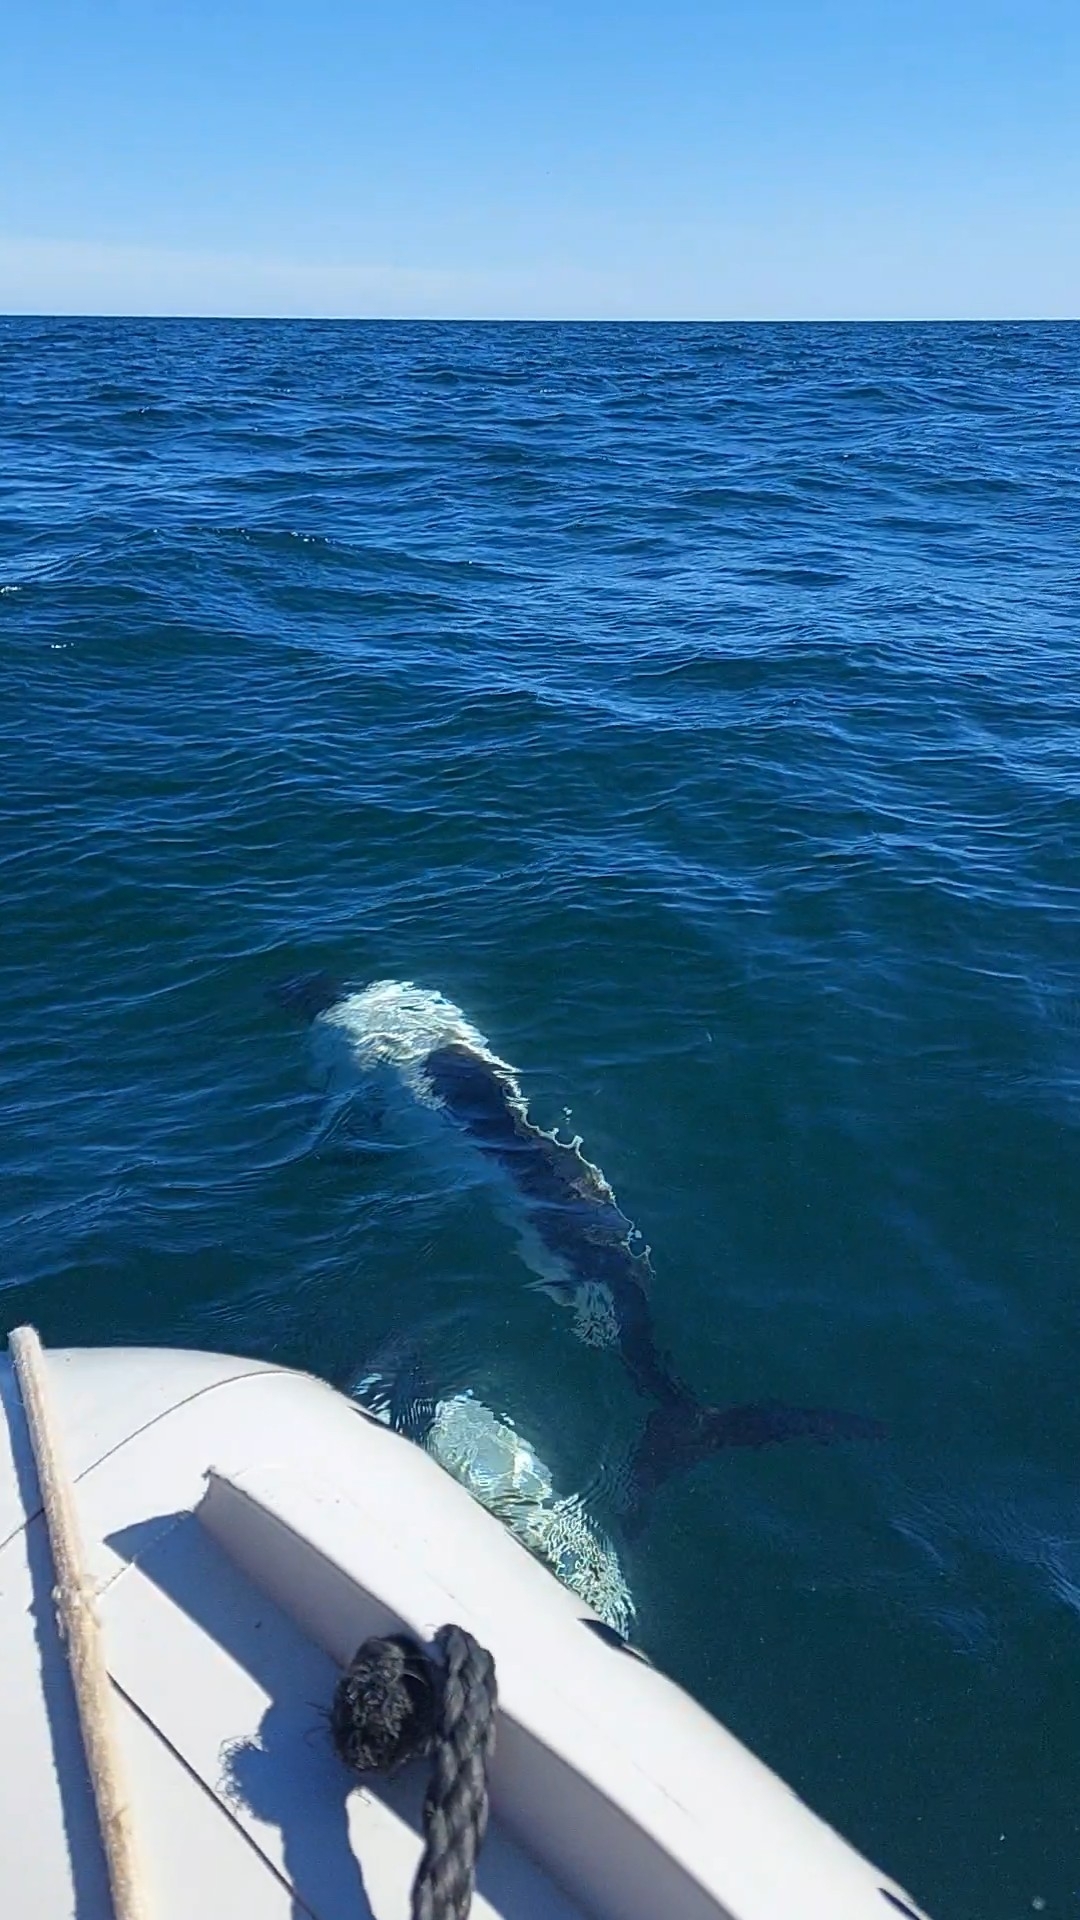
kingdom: Animalia
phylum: Chordata
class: Mammalia
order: Cetacea
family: Delphinidae
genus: Cephalorhynchus
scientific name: Cephalorhynchus commersonii
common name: Commerson's dolphin
